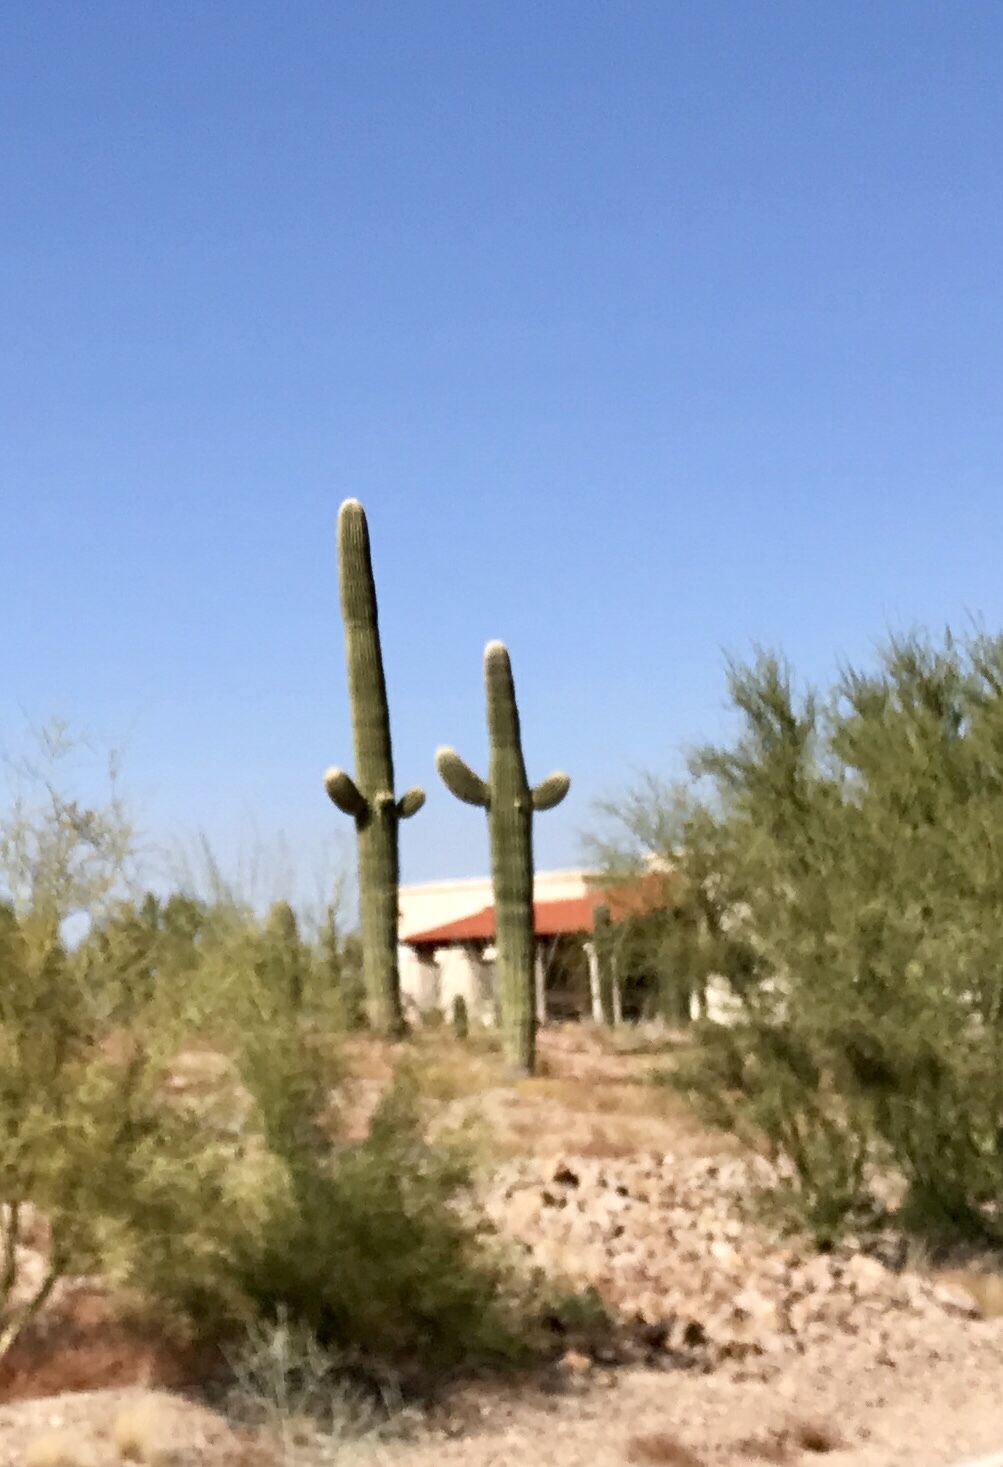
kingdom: Plantae
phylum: Tracheophyta
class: Magnoliopsida
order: Caryophyllales
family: Cactaceae
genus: Carnegiea
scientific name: Carnegiea gigantea
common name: Saguaro
